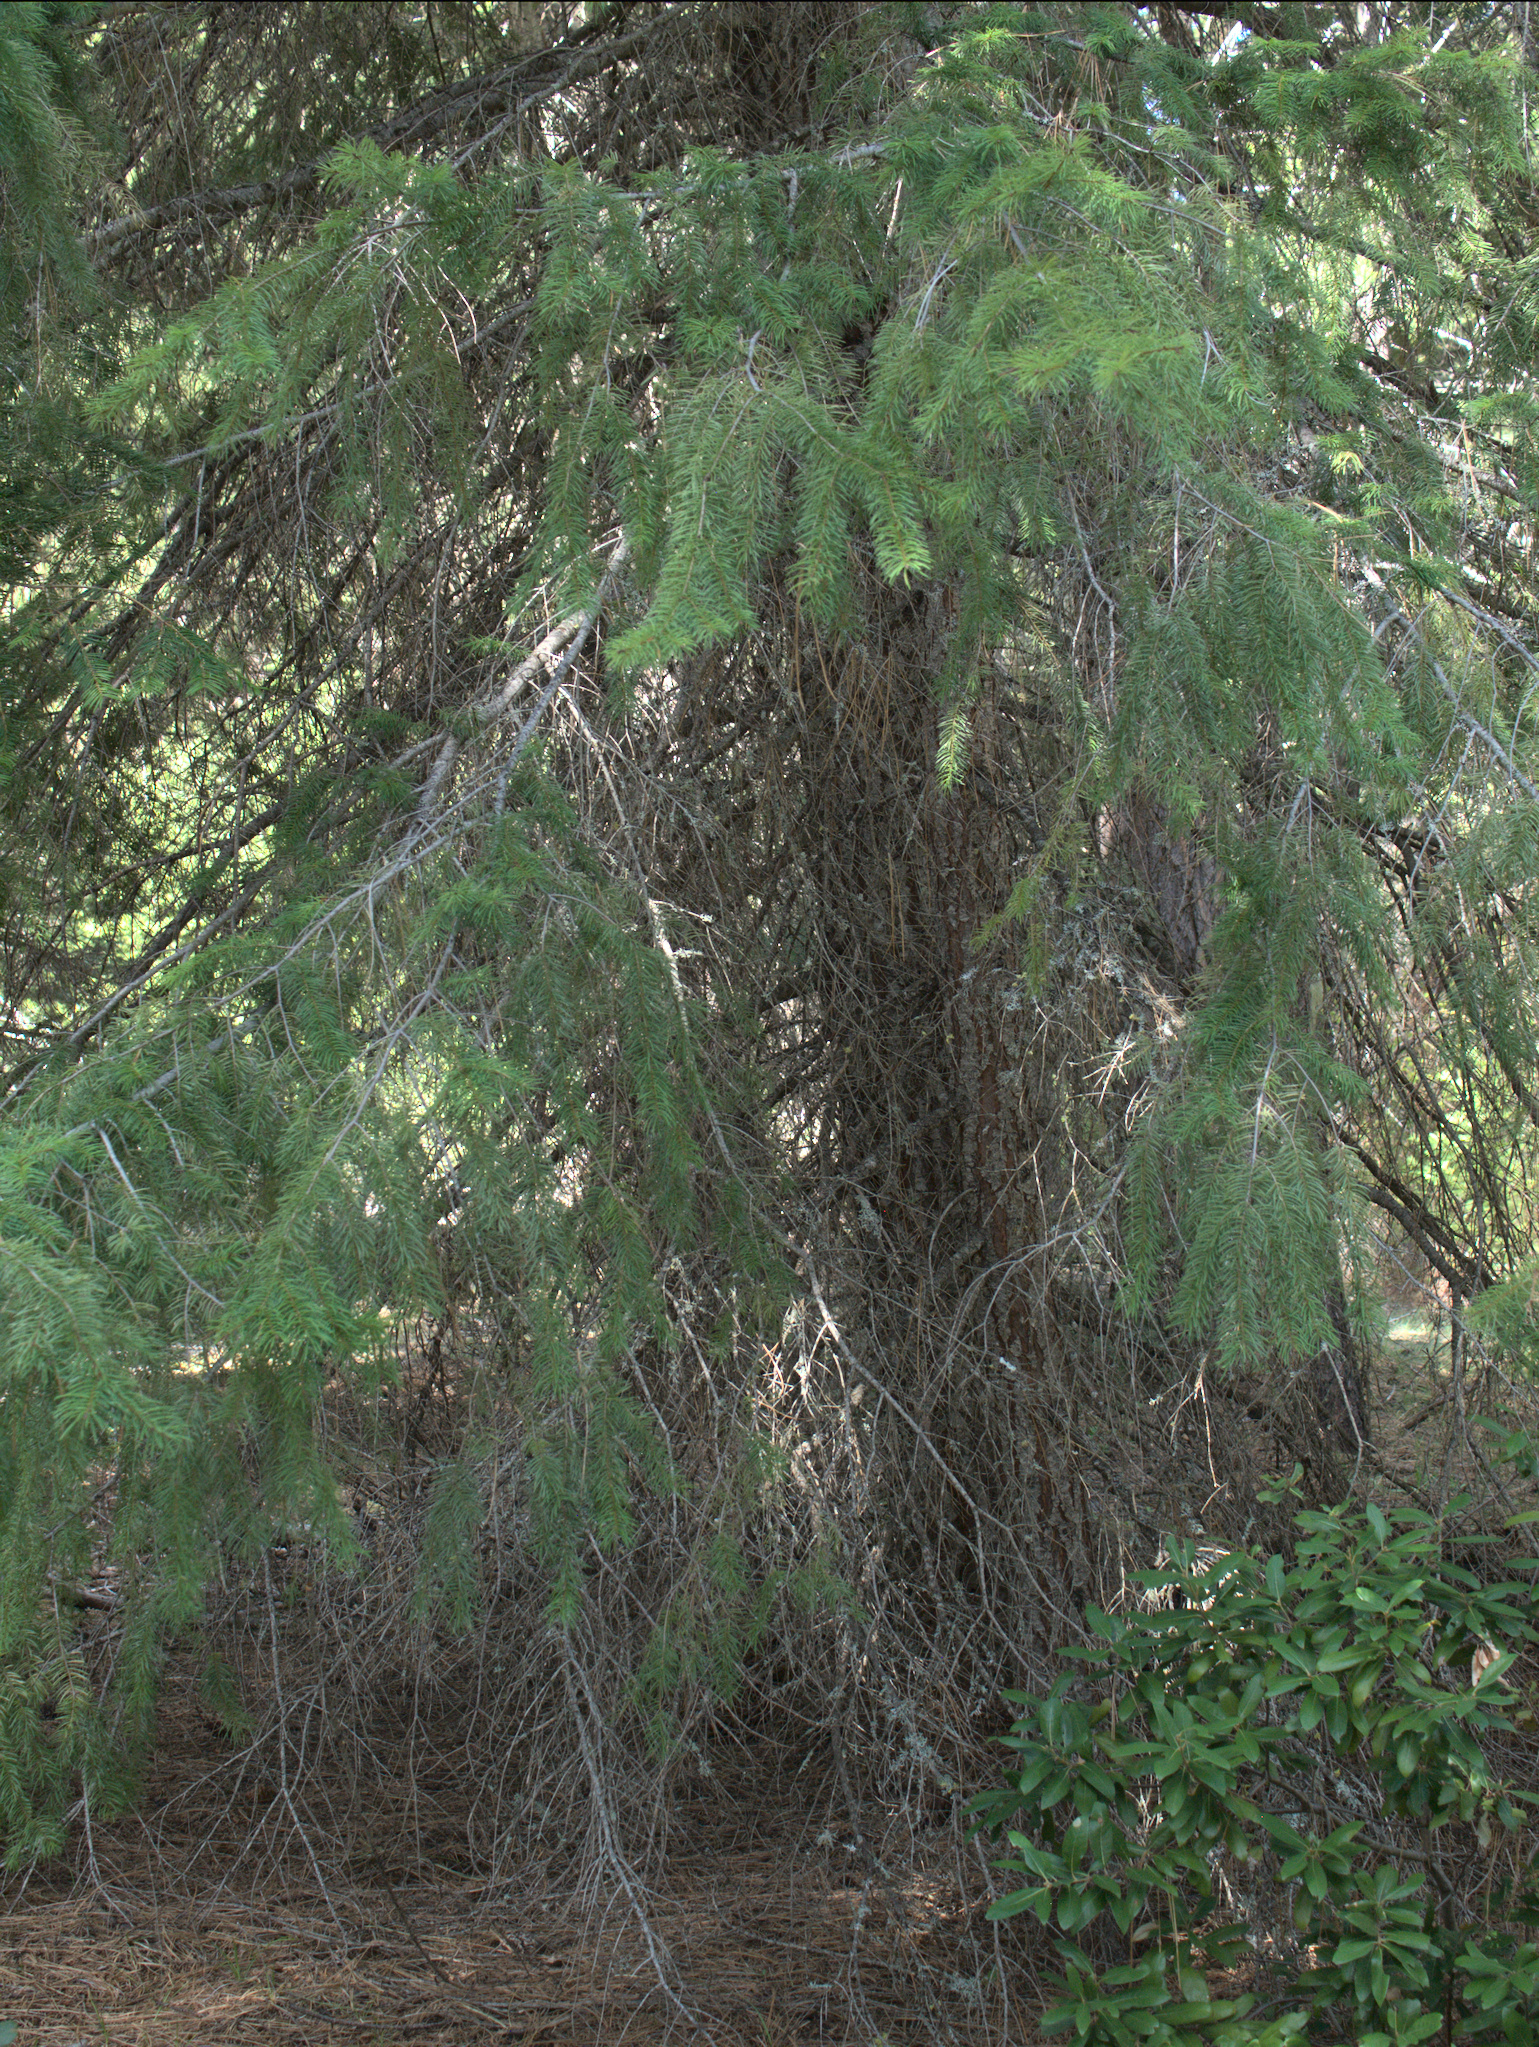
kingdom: Plantae
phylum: Tracheophyta
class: Pinopsida
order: Pinales
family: Pinaceae
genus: Pseudotsuga
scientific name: Pseudotsuga menziesii
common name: Douglas fir
